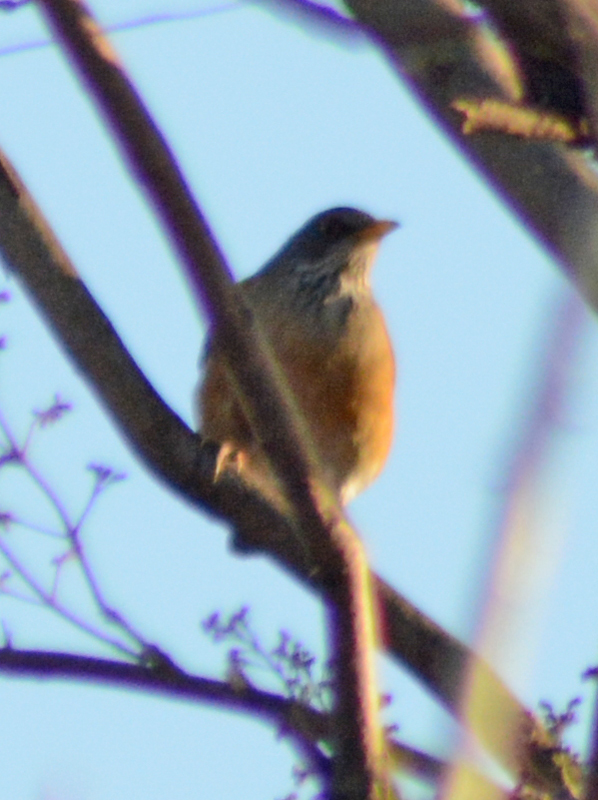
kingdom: Animalia
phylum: Chordata
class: Aves
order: Passeriformes
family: Turdidae
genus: Turdus
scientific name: Turdus rufopalliatus
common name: Rufous-backed robin
